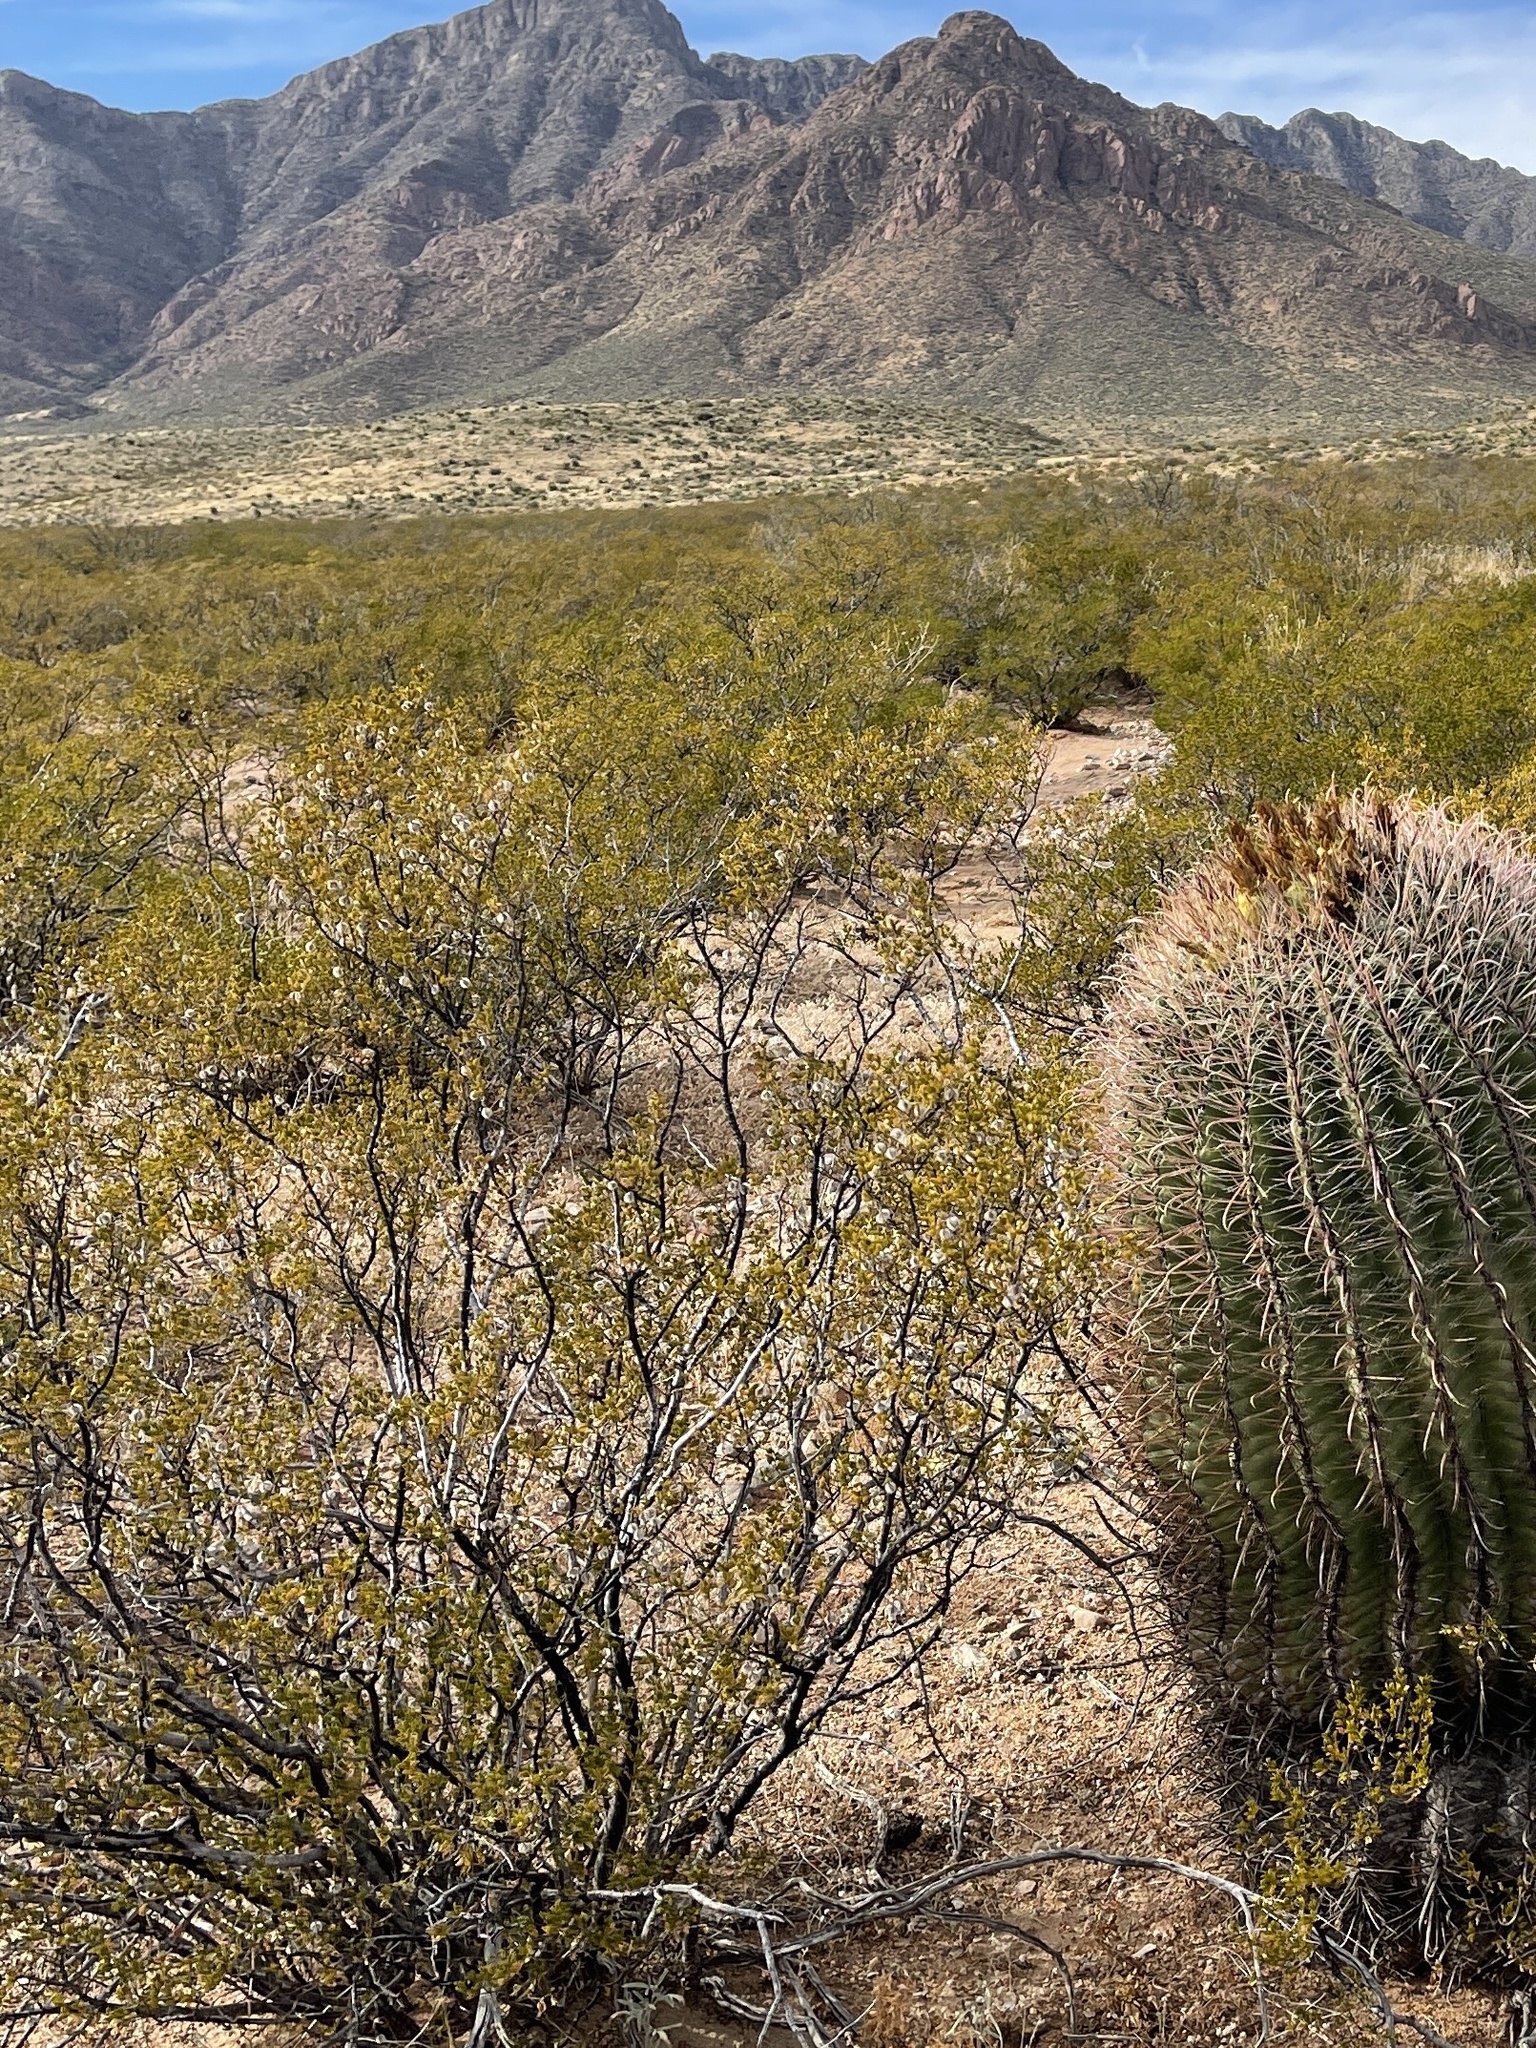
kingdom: Plantae
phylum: Tracheophyta
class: Magnoliopsida
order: Zygophyllales
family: Zygophyllaceae
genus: Larrea
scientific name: Larrea tridentata
